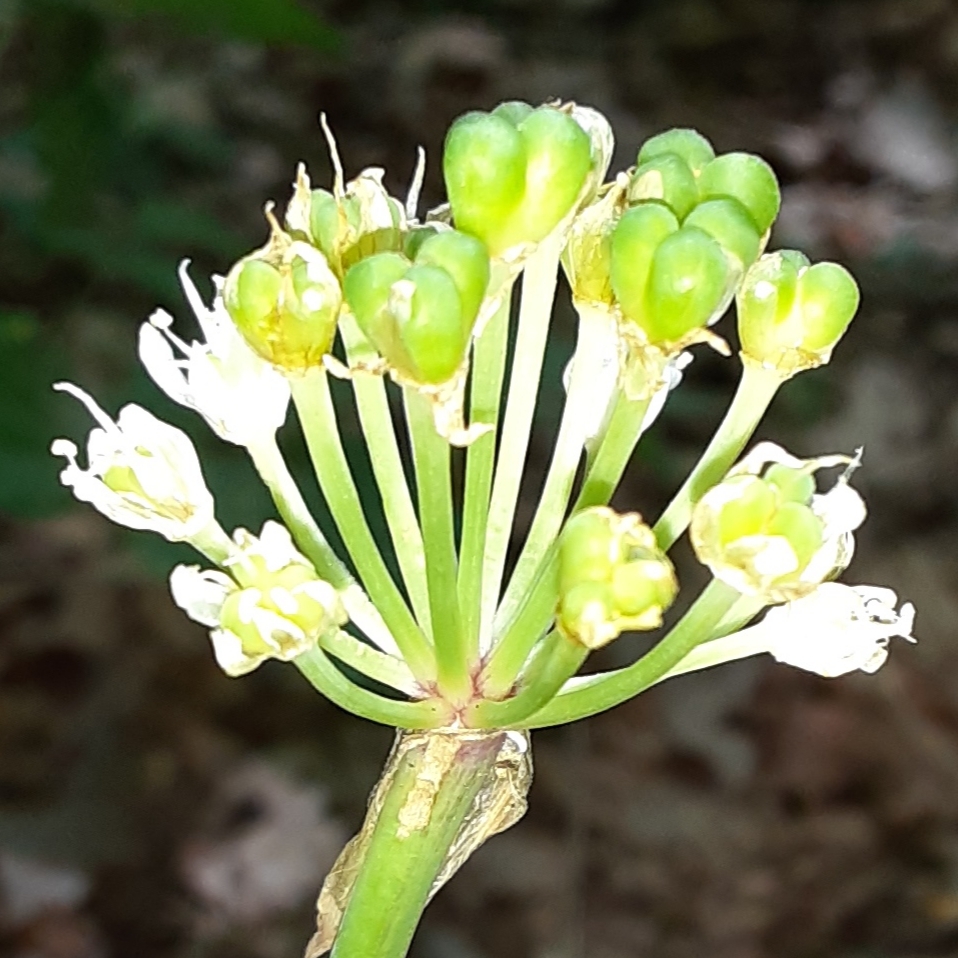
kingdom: Plantae
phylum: Tracheophyta
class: Liliopsida
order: Asparagales
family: Amaryllidaceae
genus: Allium
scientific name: Allium tricoccum
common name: Ramp
